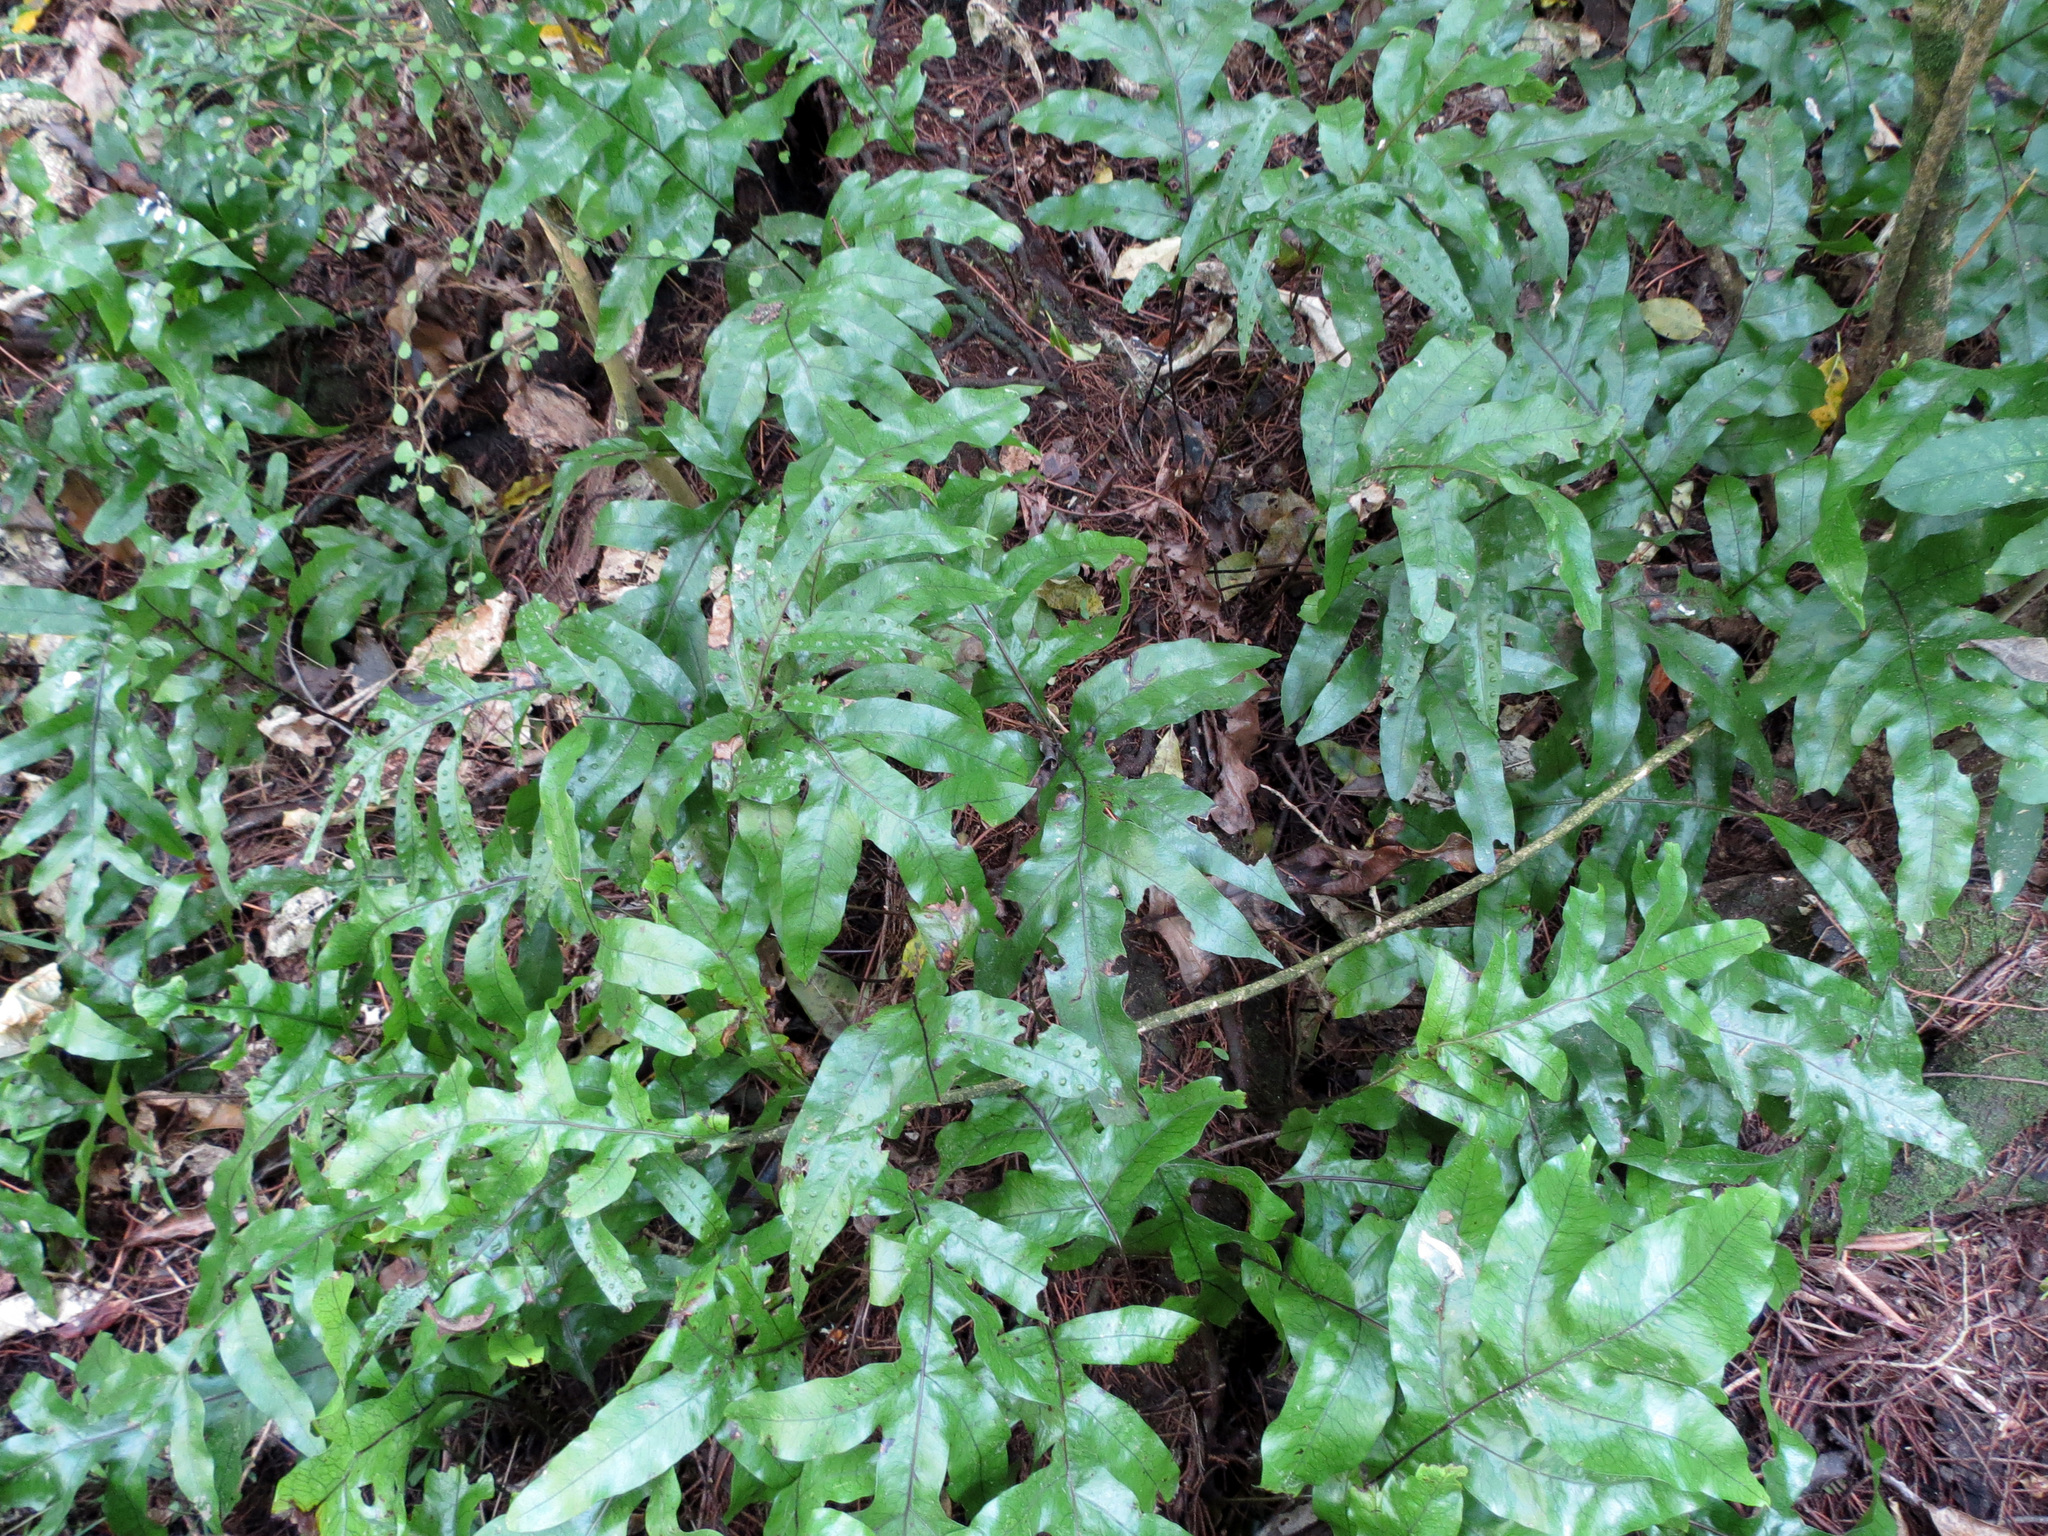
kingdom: Plantae
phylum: Tracheophyta
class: Polypodiopsida
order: Polypodiales
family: Polypodiaceae
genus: Lecanopteris
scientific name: Lecanopteris pustulata
